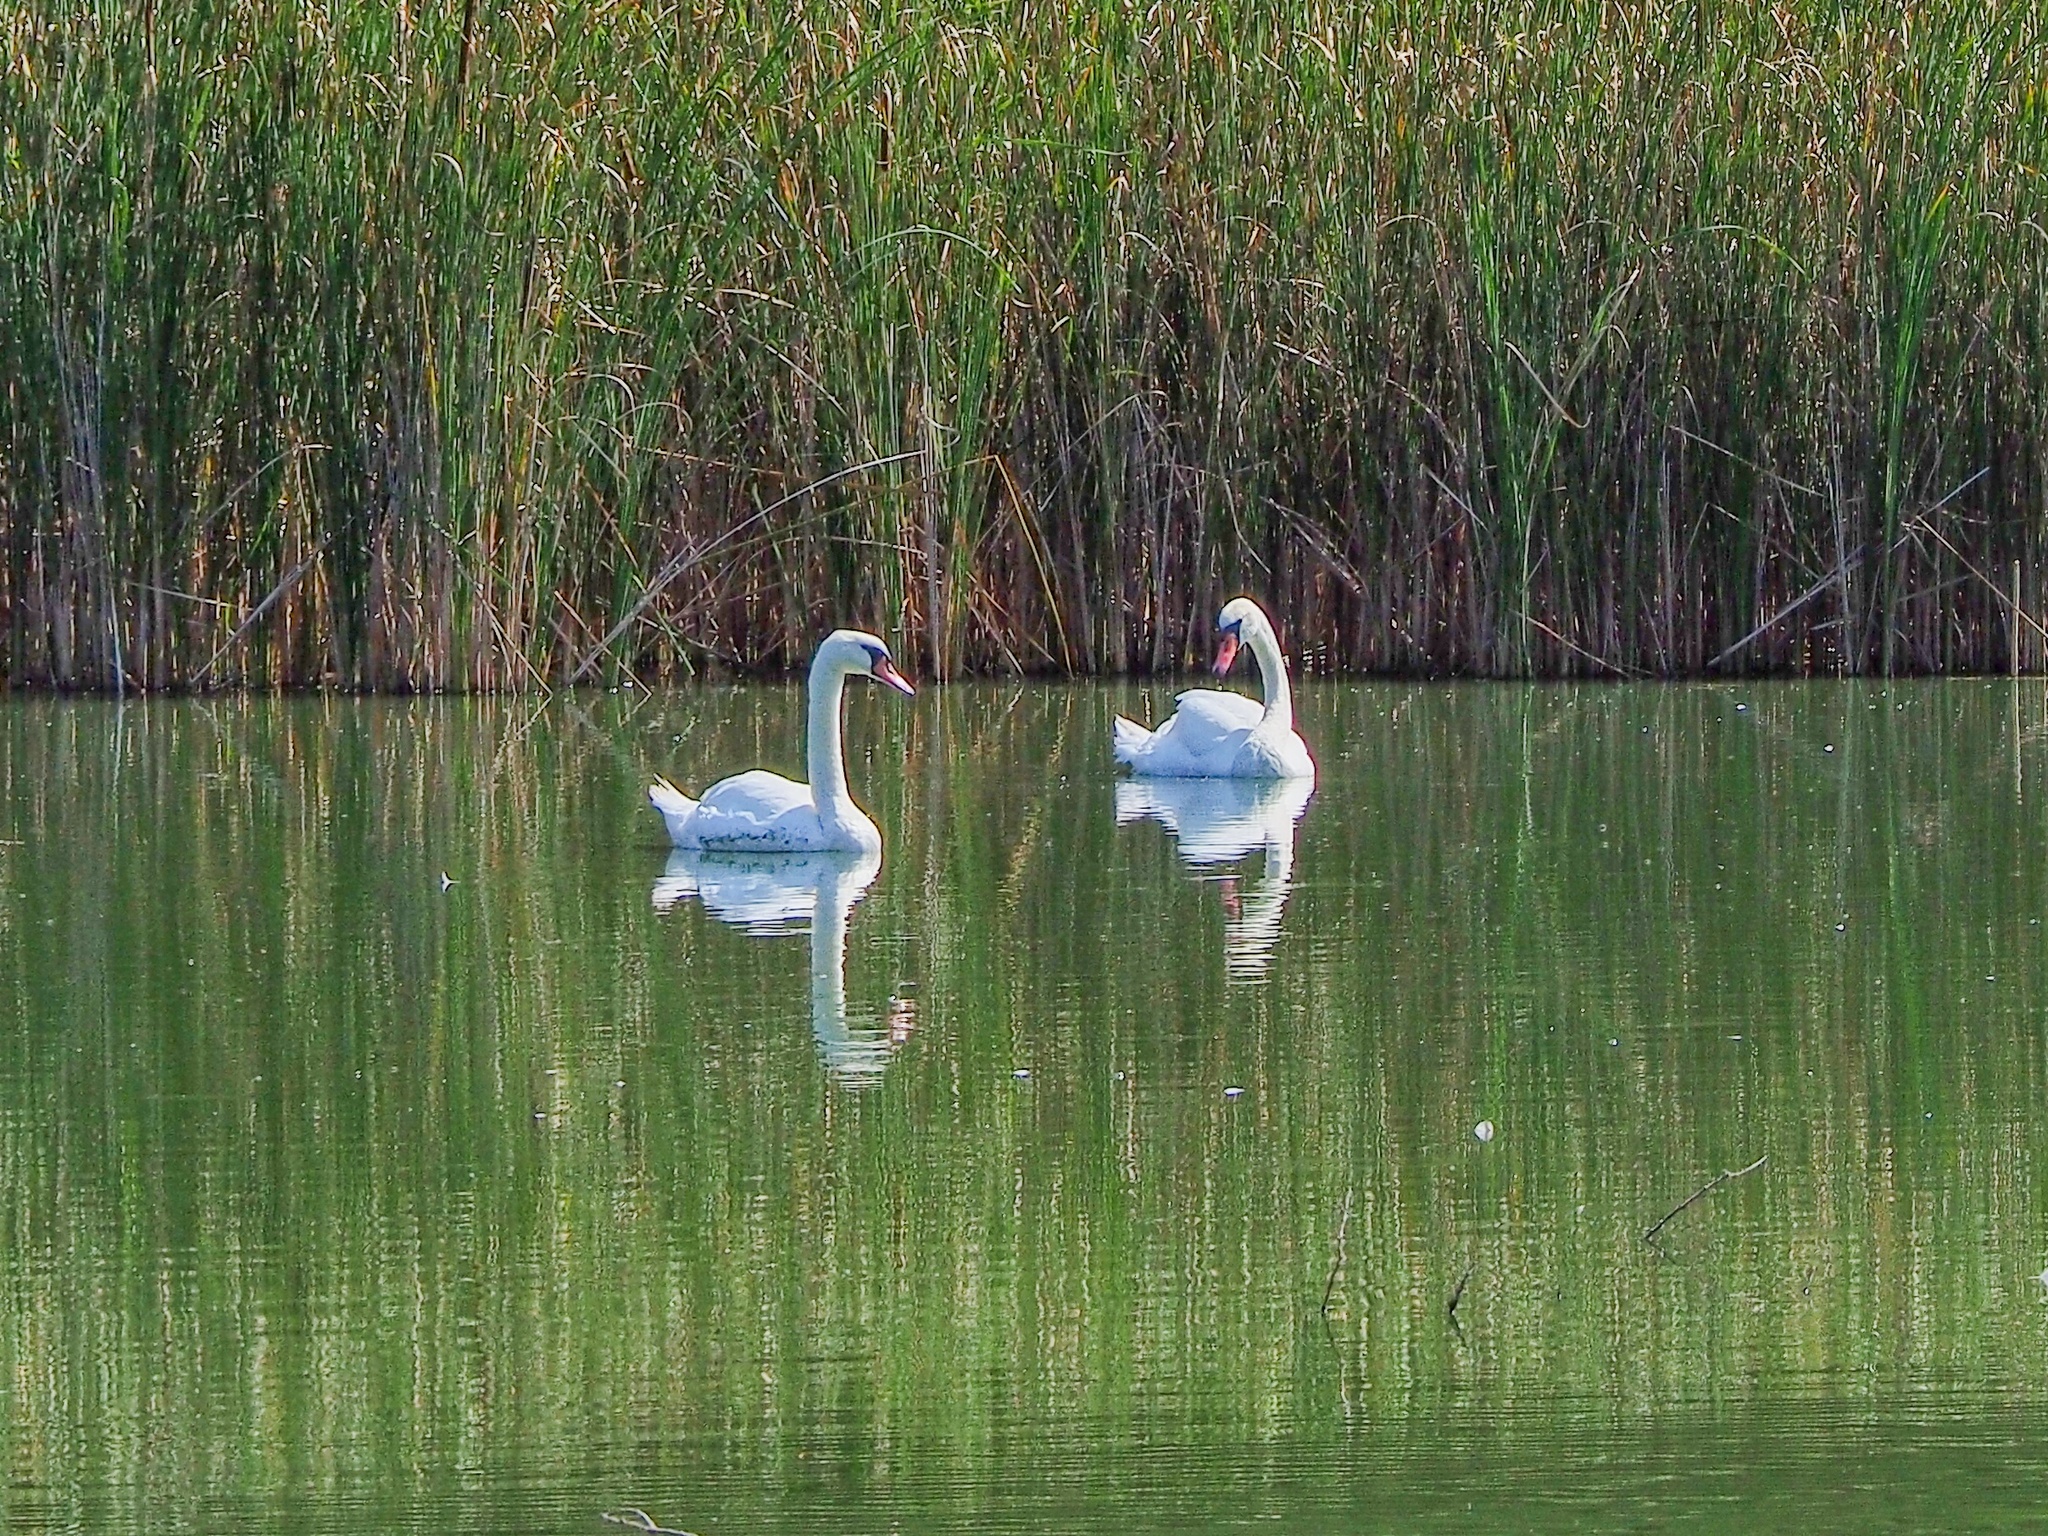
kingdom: Animalia
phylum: Chordata
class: Aves
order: Anseriformes
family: Anatidae
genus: Cygnus
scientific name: Cygnus olor
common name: Mute swan
